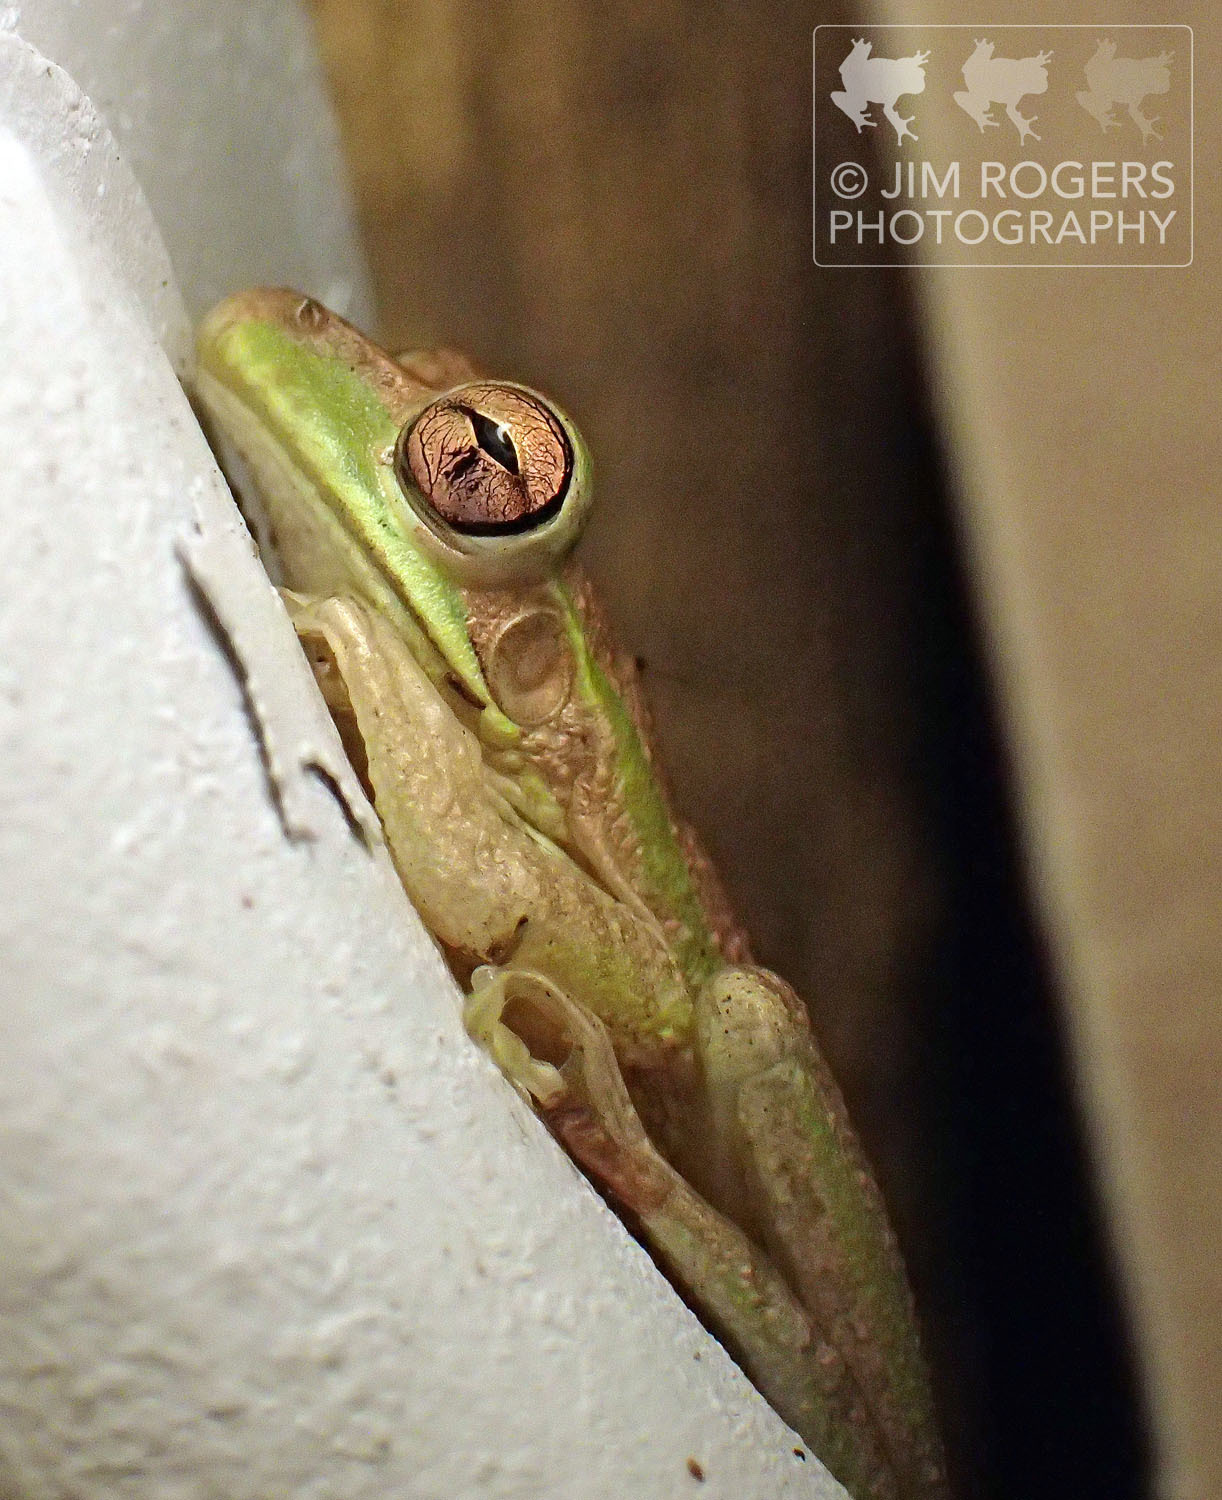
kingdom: Animalia
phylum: Chordata
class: Amphibia
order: Anura
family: Hylidae
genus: Osteopilus
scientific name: Osteopilus septentrionalis
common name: Cuban treefrog
